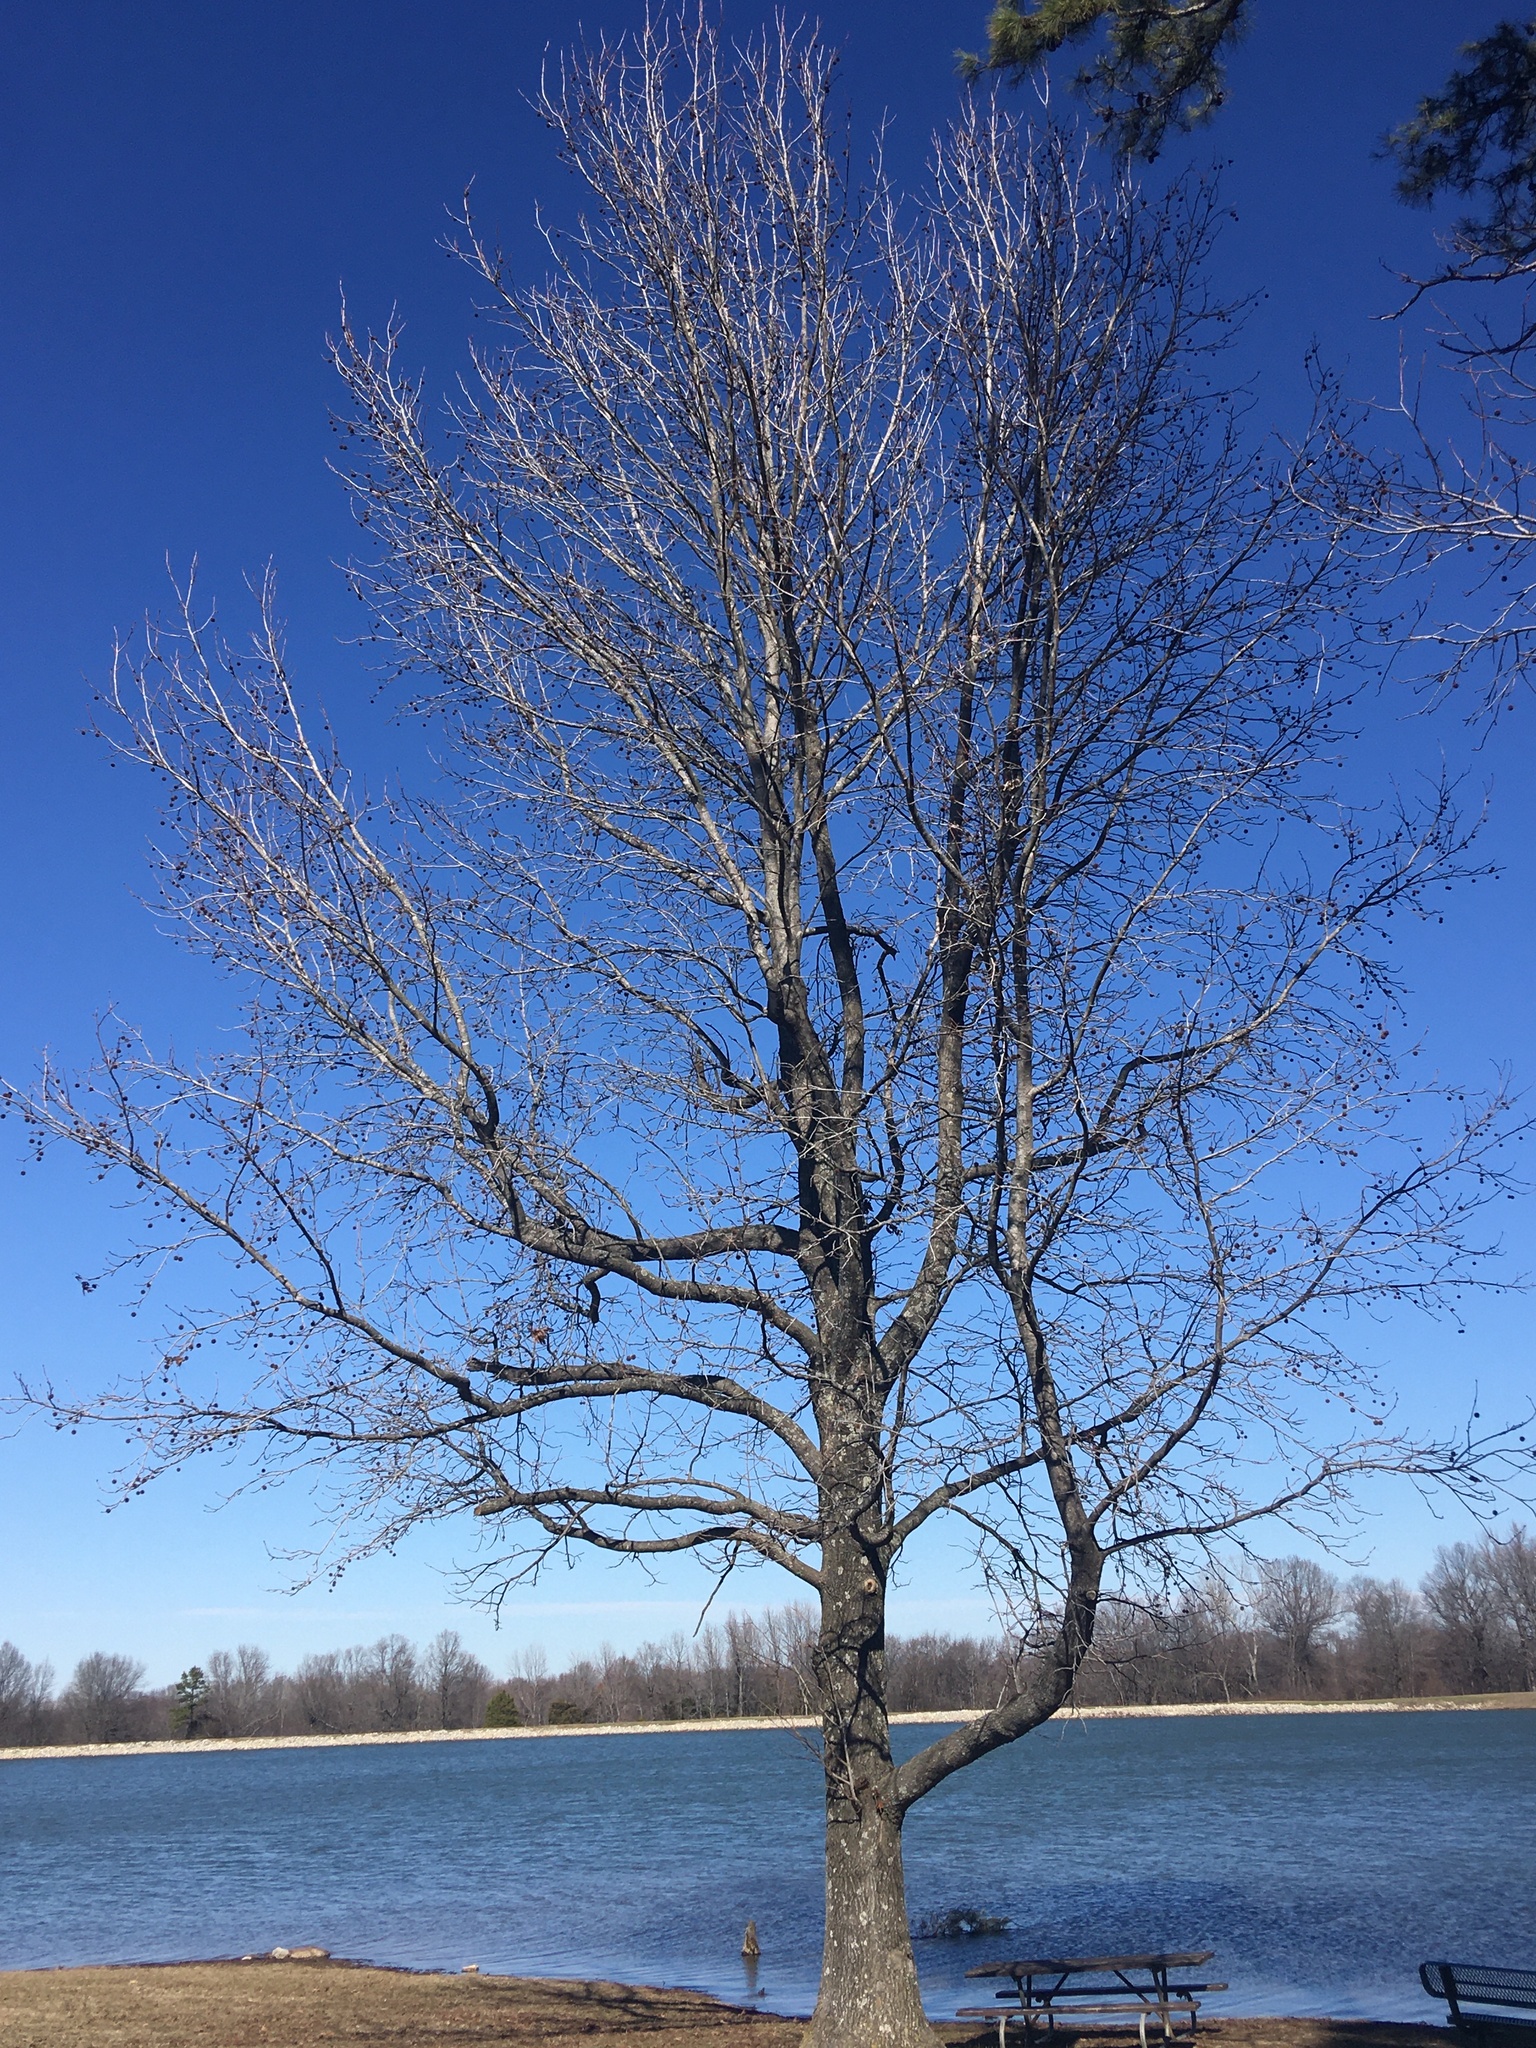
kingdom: Plantae
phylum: Tracheophyta
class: Magnoliopsida
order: Saxifragales
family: Altingiaceae
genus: Liquidambar
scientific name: Liquidambar styraciflua
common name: Sweet gum
